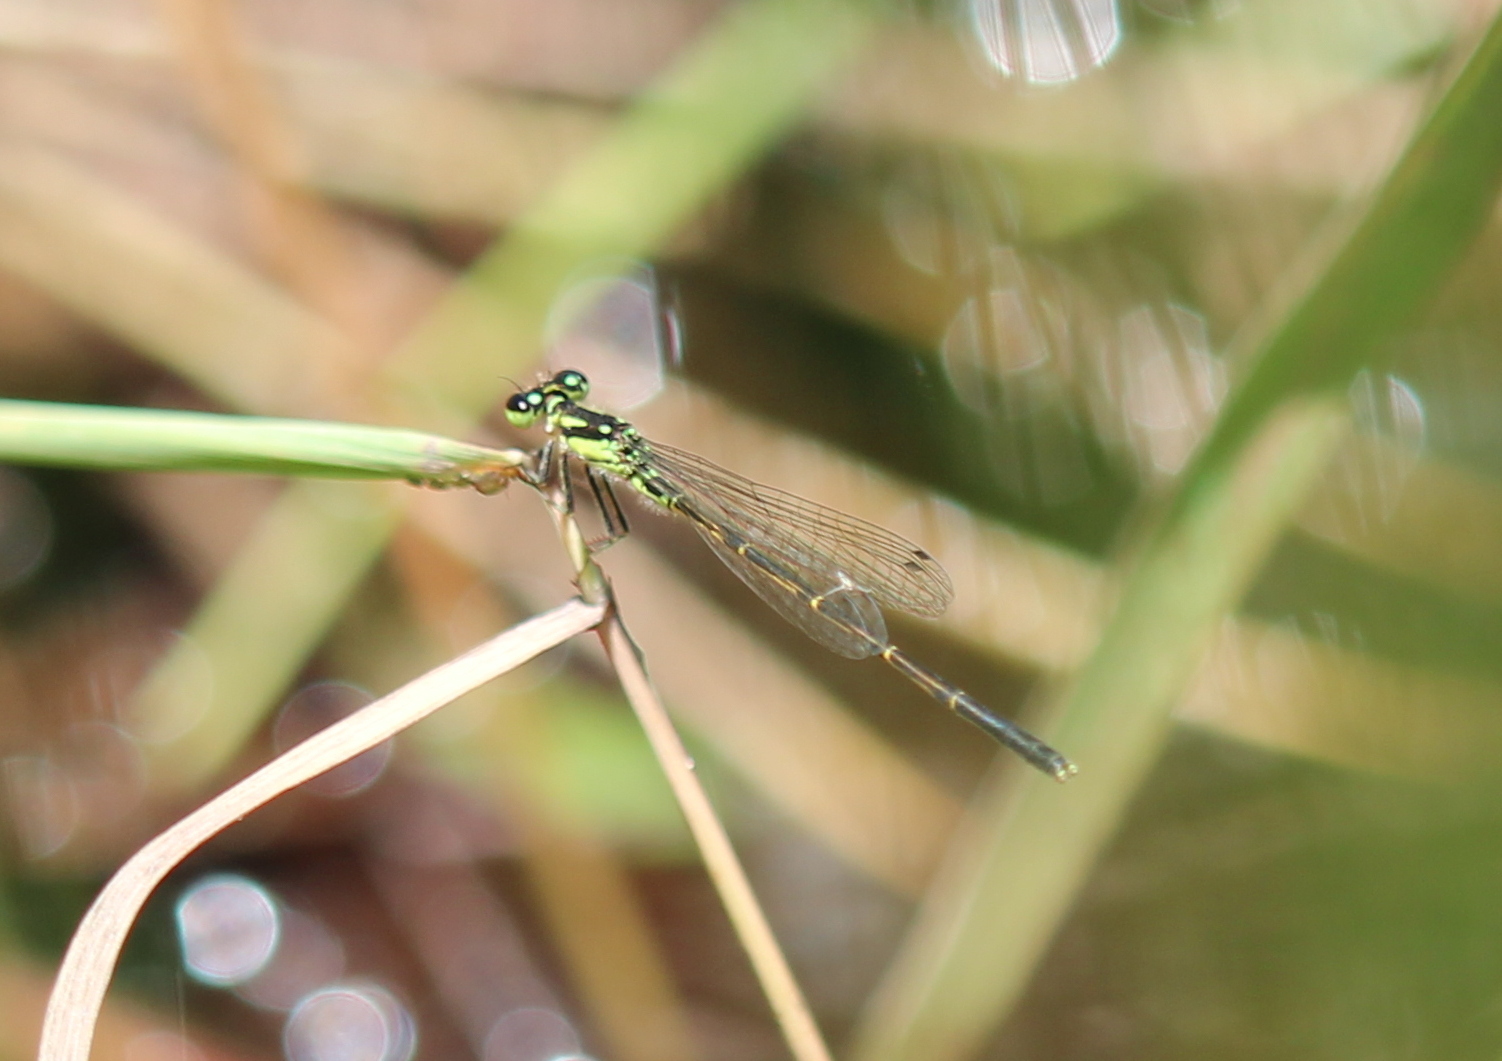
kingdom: Animalia
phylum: Arthropoda
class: Insecta
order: Odonata
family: Coenagrionidae
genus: Ischnura
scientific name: Ischnura posita
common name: Fragile forktail
